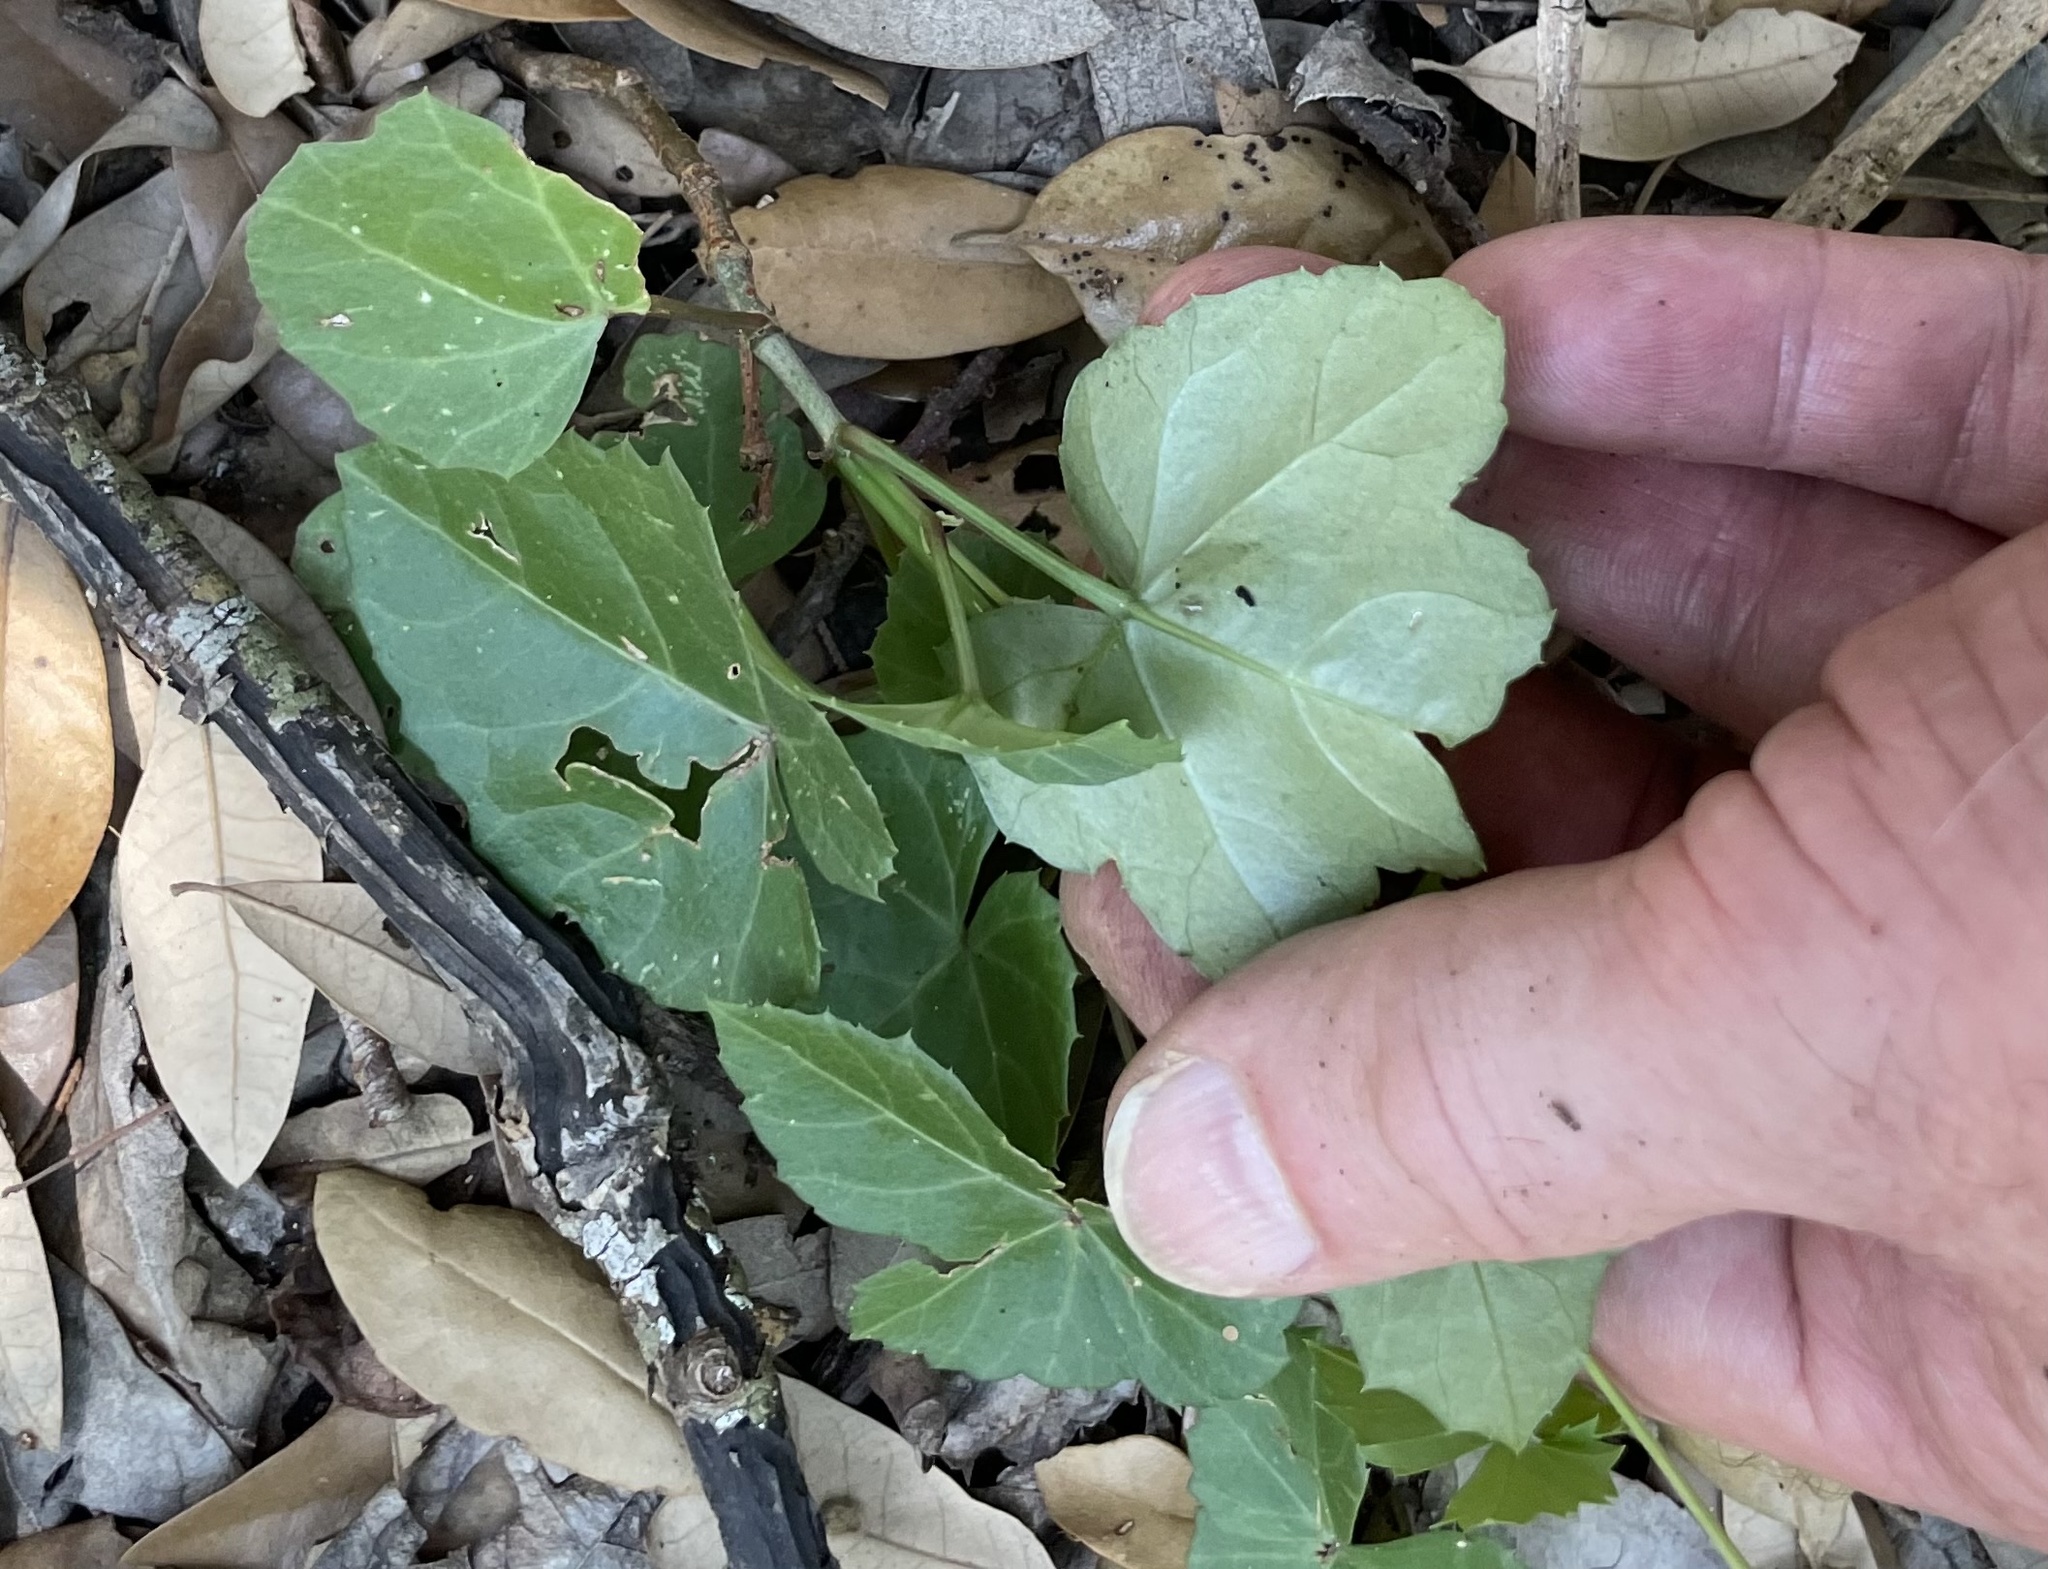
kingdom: Plantae
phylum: Tracheophyta
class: Magnoliopsida
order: Vitales
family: Vitaceae
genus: Cissus
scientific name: Cissus trifoliata
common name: Vine-sorrel
